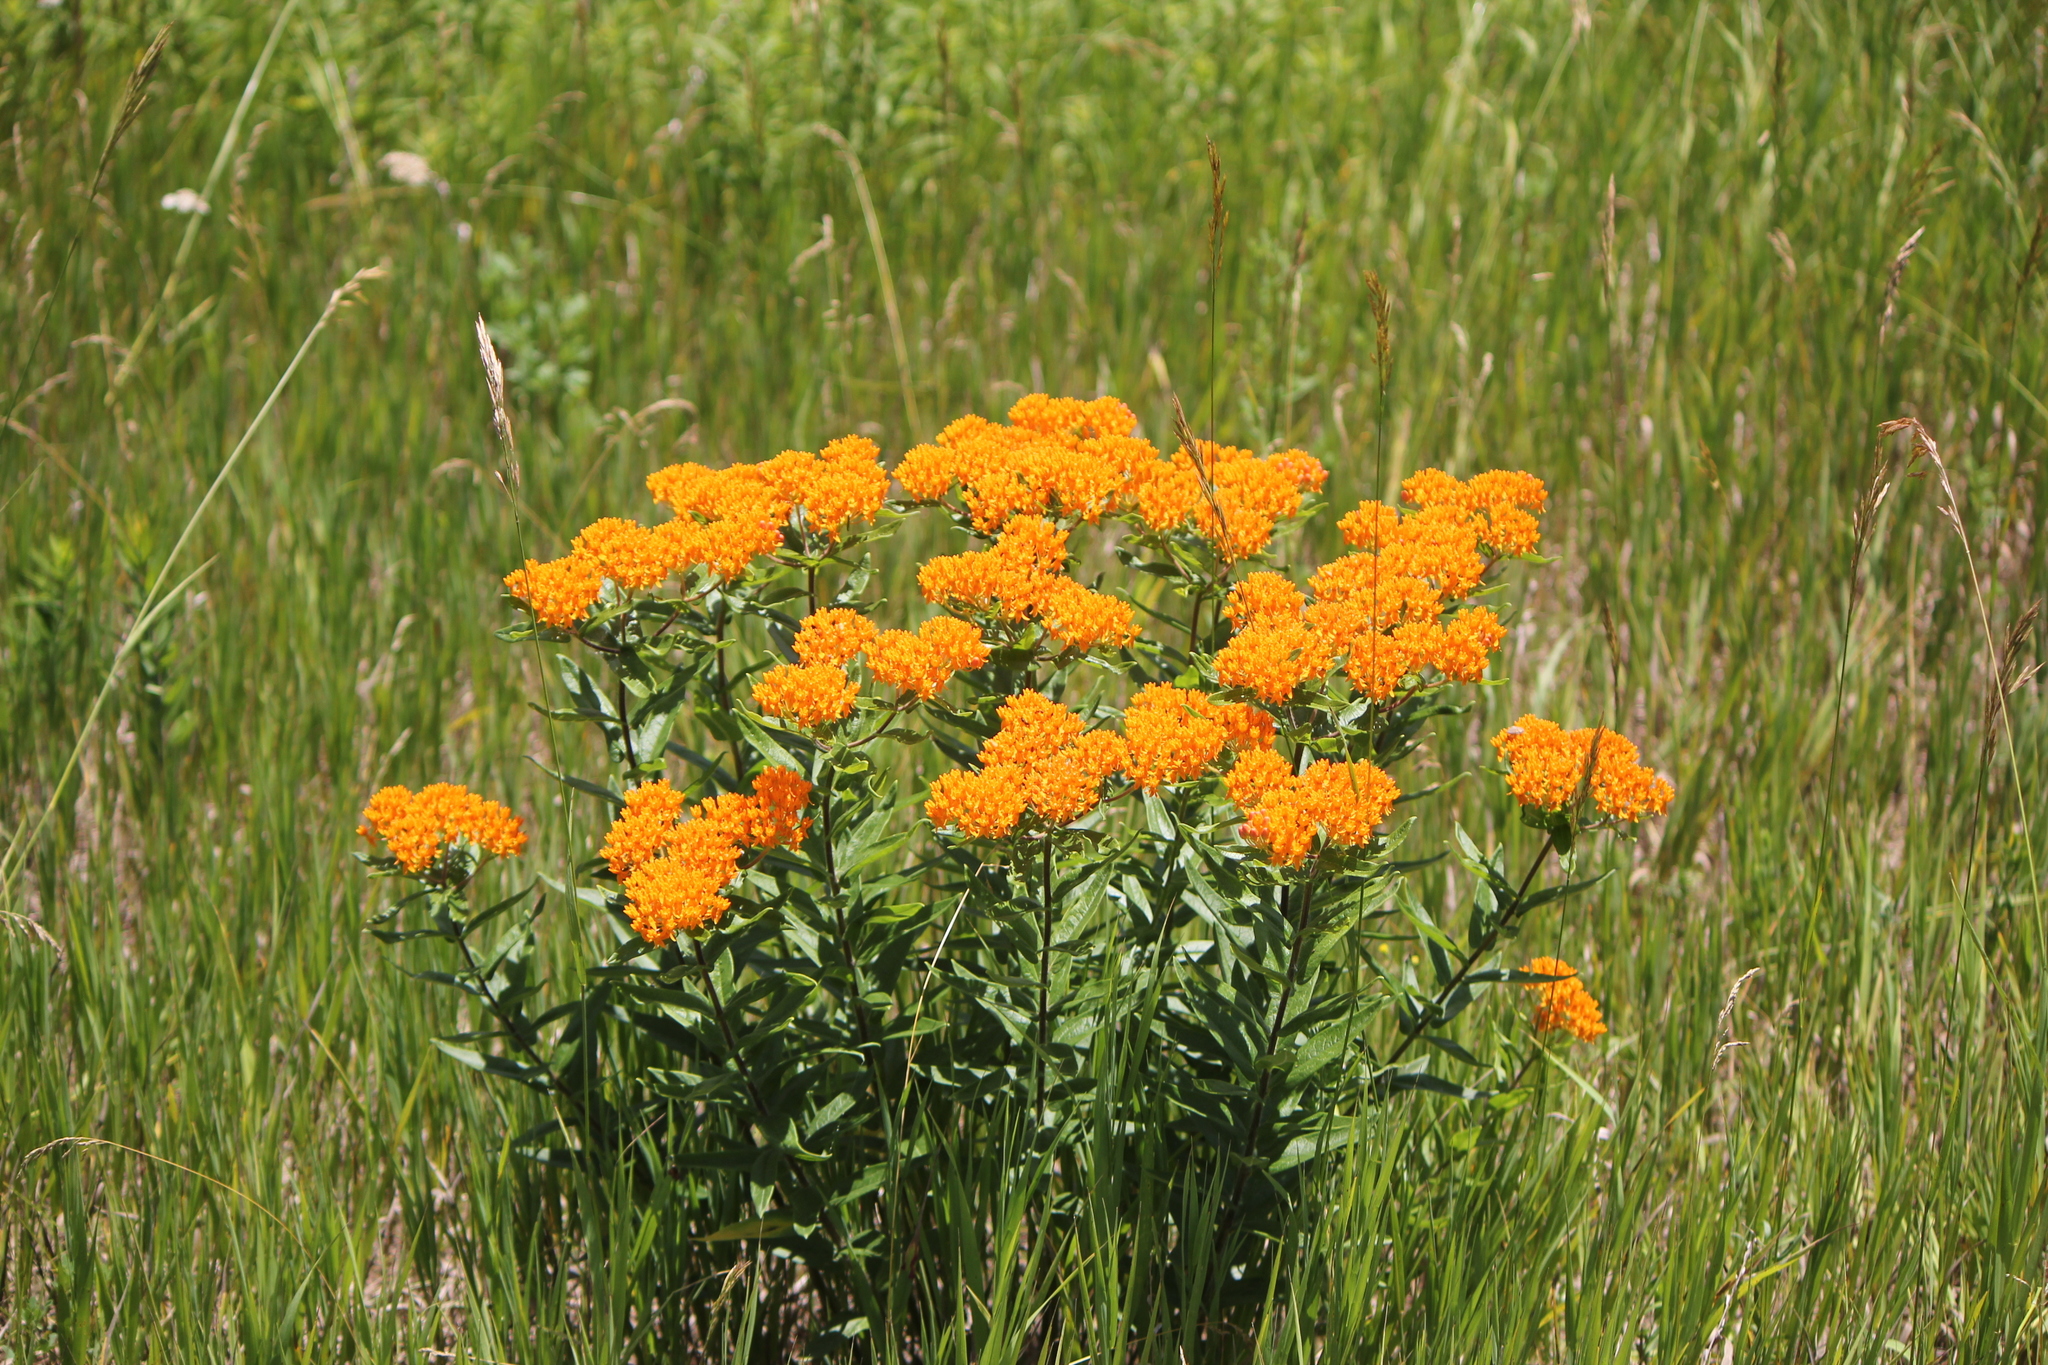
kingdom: Plantae
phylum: Tracheophyta
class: Magnoliopsida
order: Gentianales
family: Apocynaceae
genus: Asclepias
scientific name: Asclepias tuberosa
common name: Butterfly milkweed
